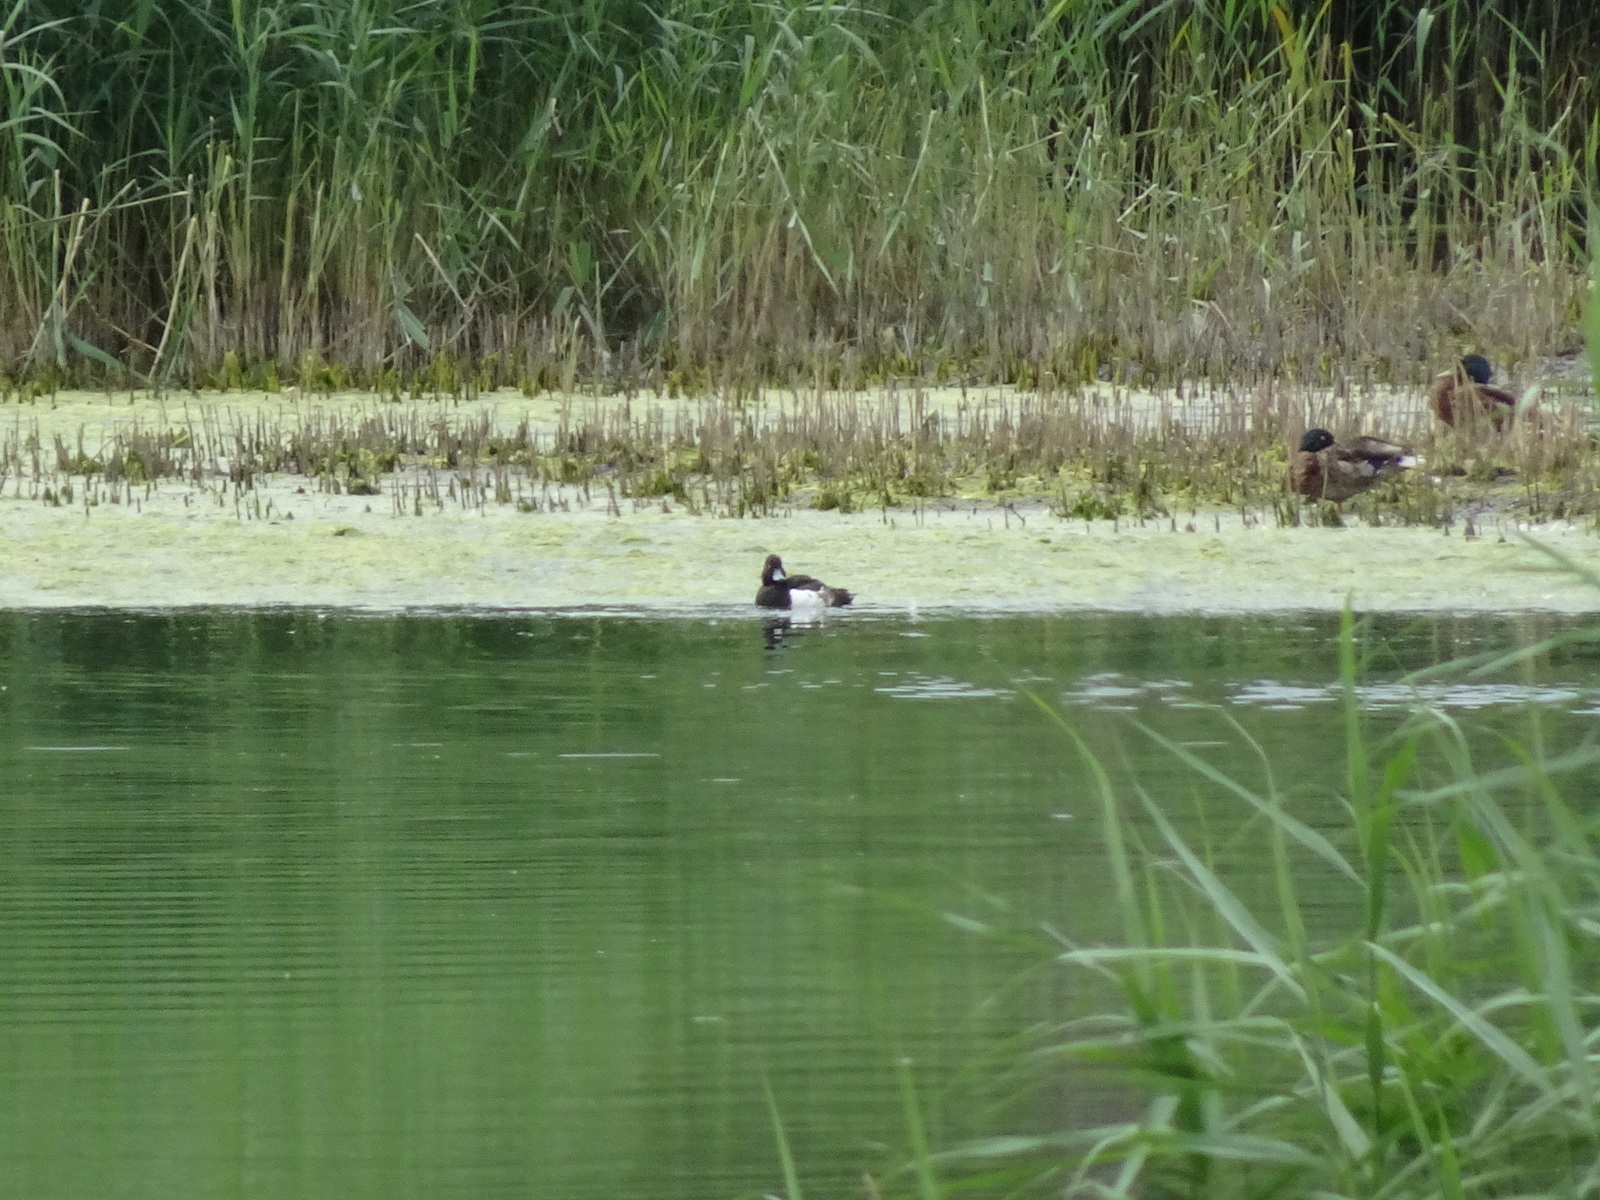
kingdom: Animalia
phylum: Chordata
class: Aves
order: Anseriformes
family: Anatidae
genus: Aythya
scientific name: Aythya fuligula
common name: Tufted duck
